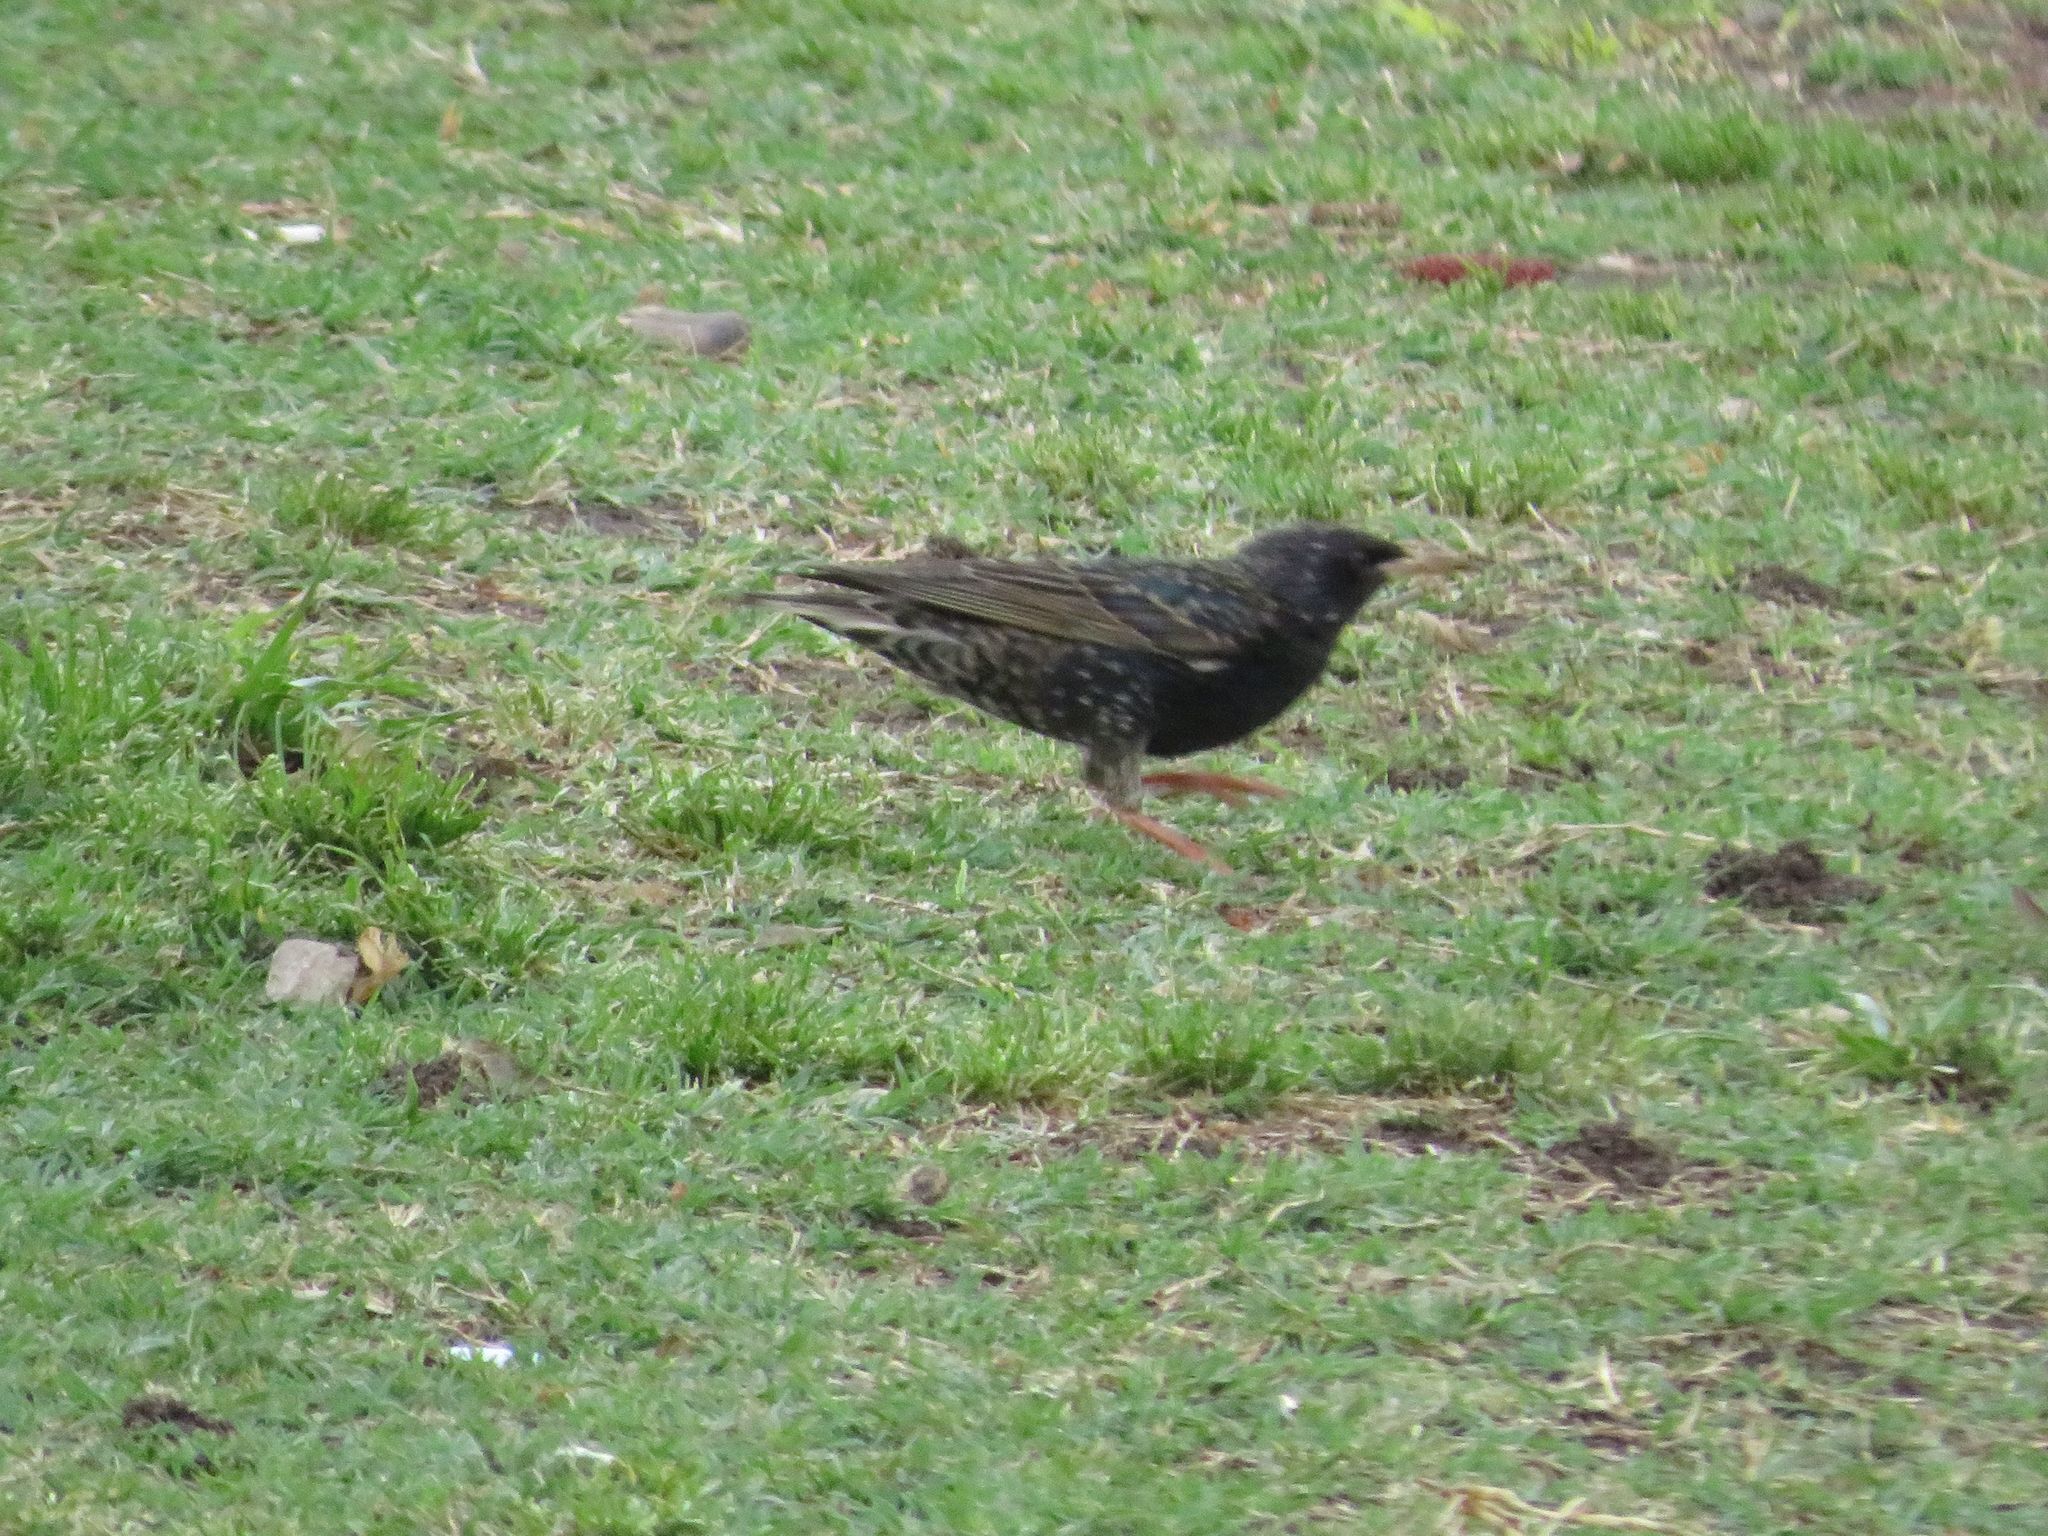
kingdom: Animalia
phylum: Chordata
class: Aves
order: Passeriformes
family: Sturnidae
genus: Sturnus
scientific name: Sturnus vulgaris
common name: Common starling
